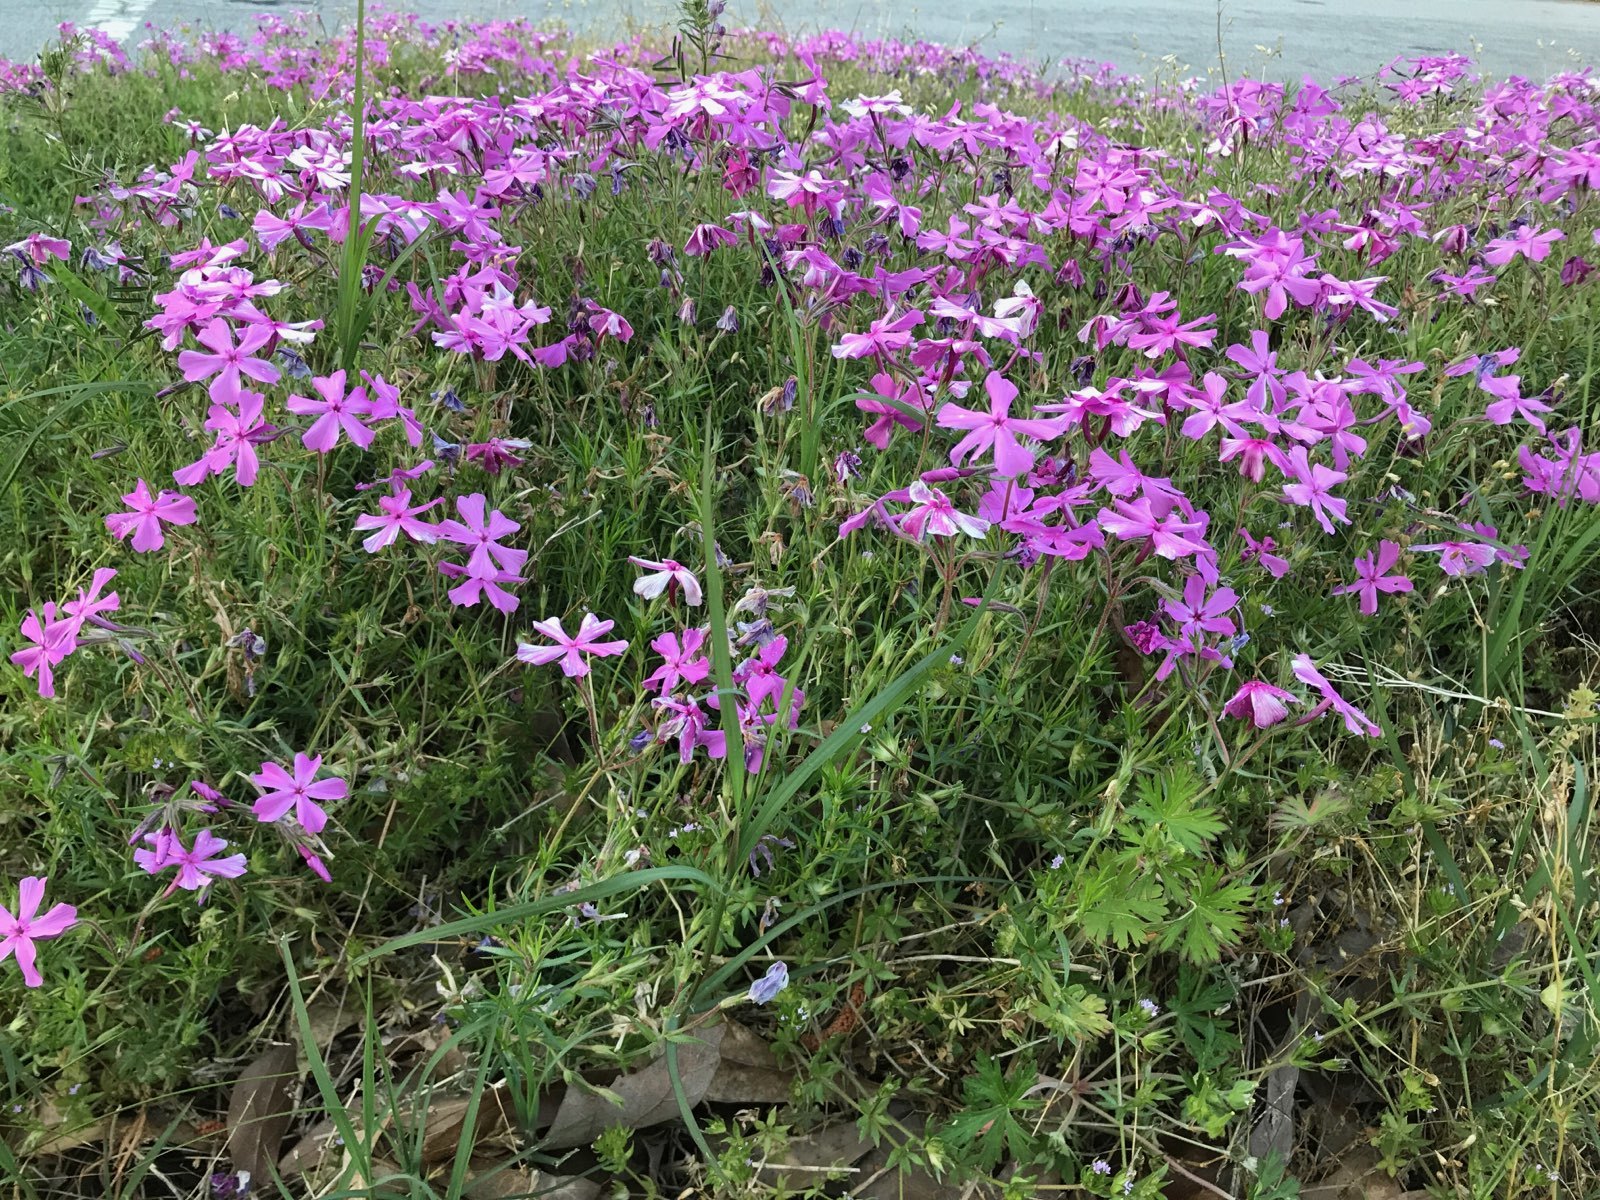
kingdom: Plantae
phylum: Tracheophyta
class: Magnoliopsida
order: Ericales
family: Polemoniaceae
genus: Phlox
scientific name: Phlox subulata
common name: Moss phlox
